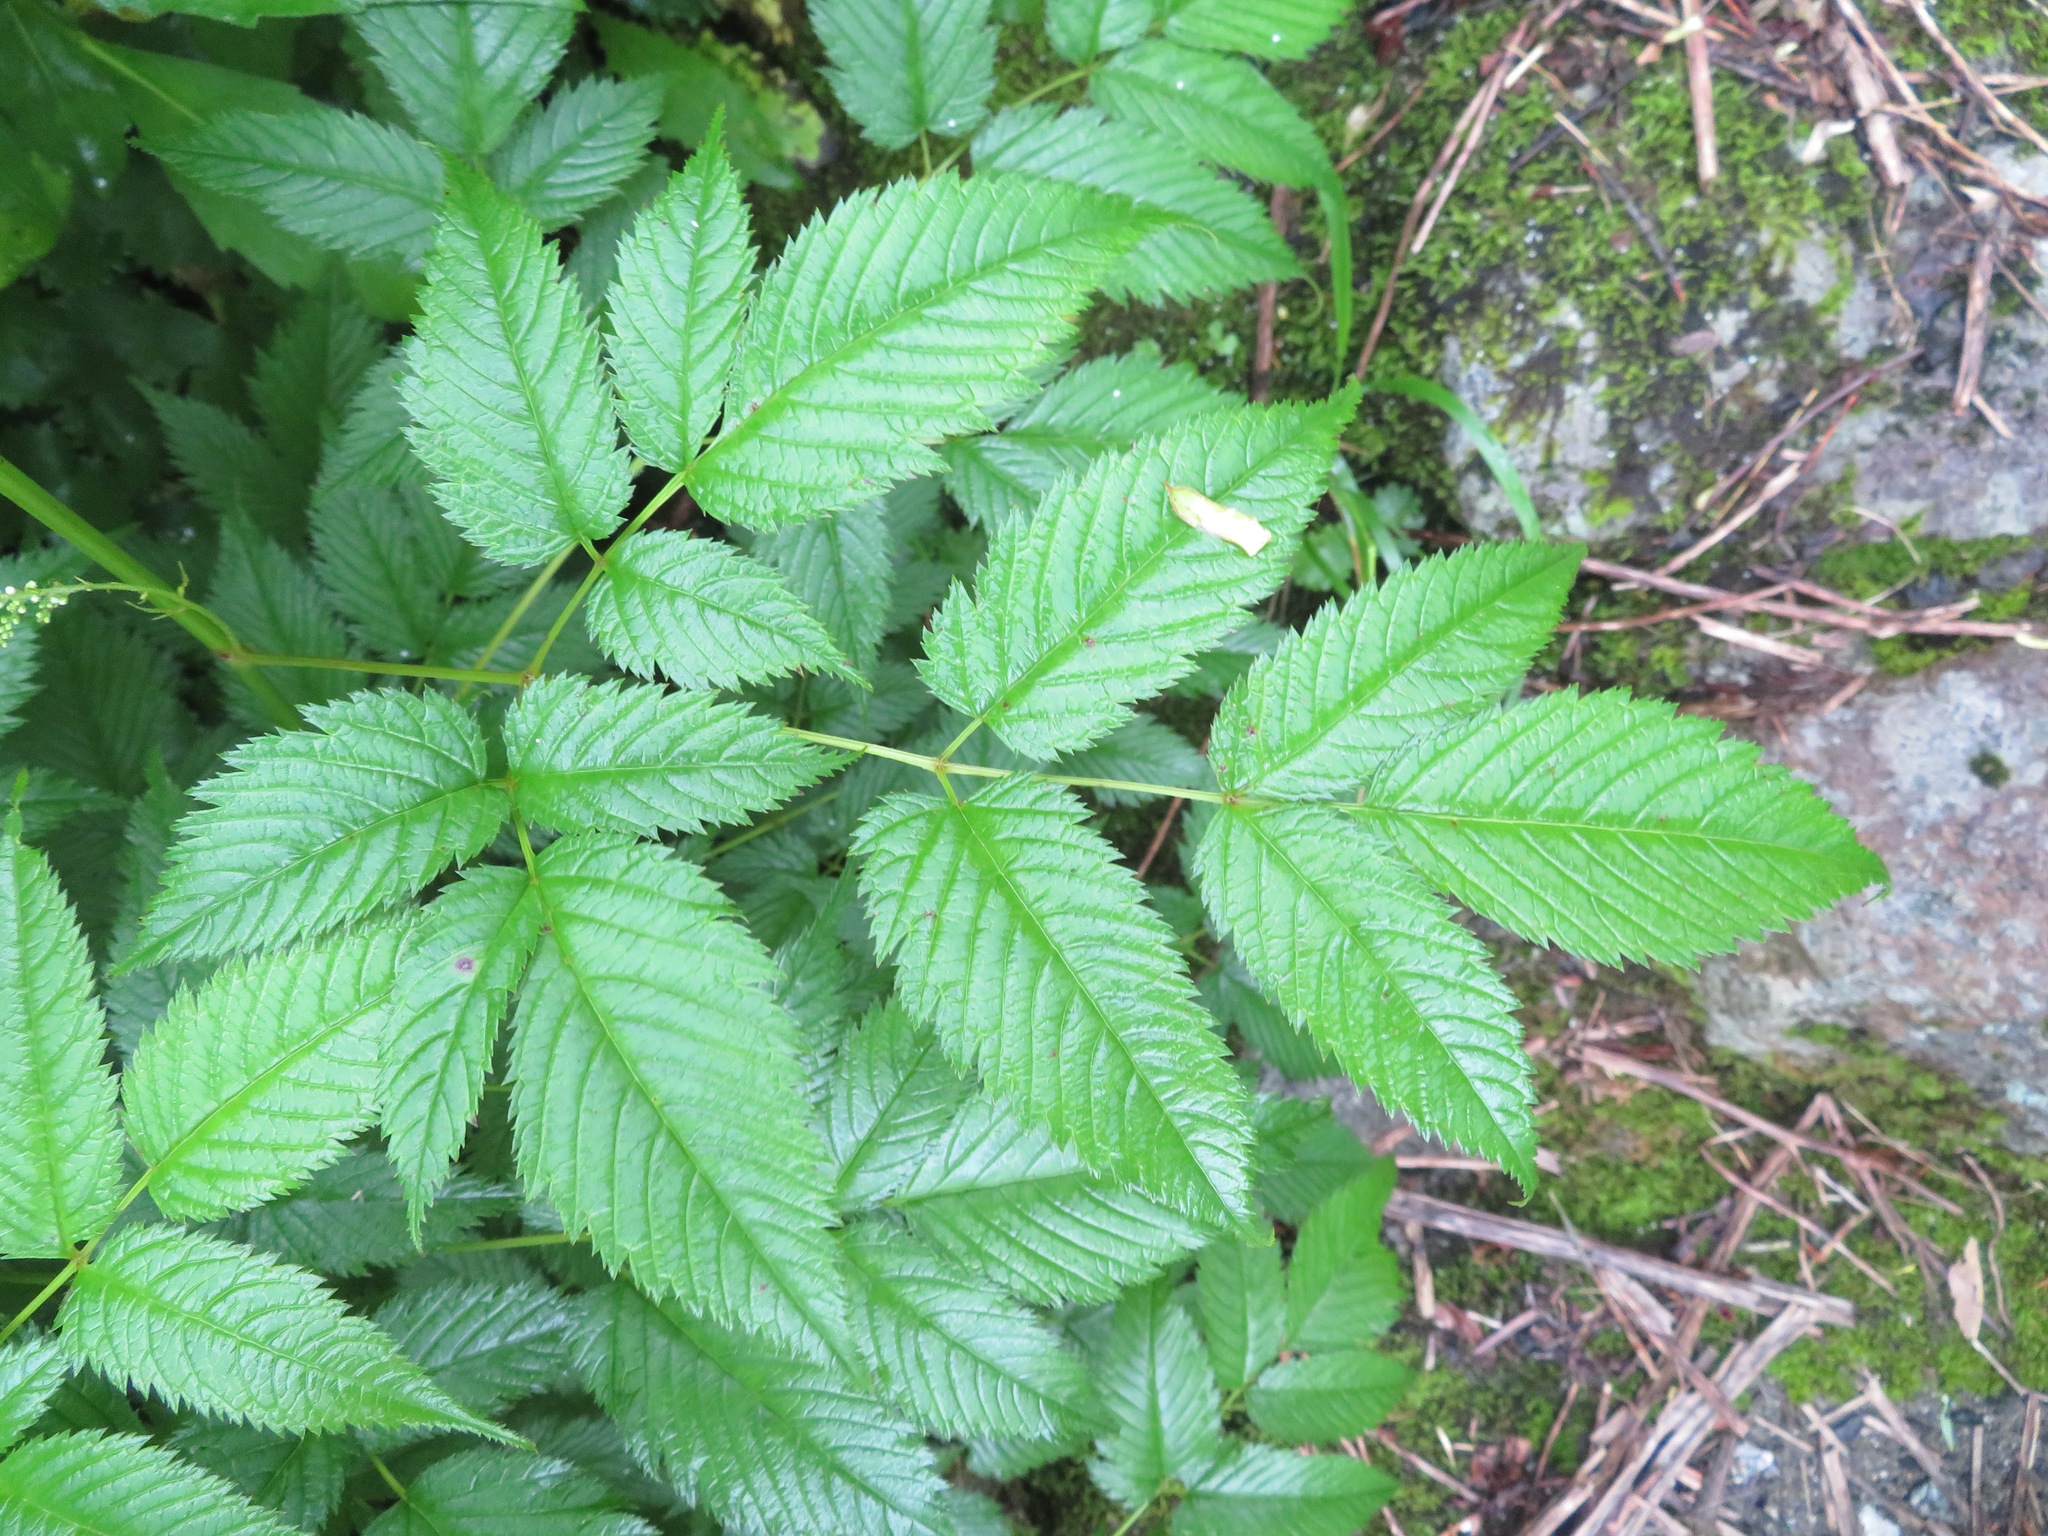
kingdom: Plantae
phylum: Tracheophyta
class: Magnoliopsida
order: Rosales
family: Rosaceae
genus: Aruncus
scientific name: Aruncus dioicus
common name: Buck's-beard
